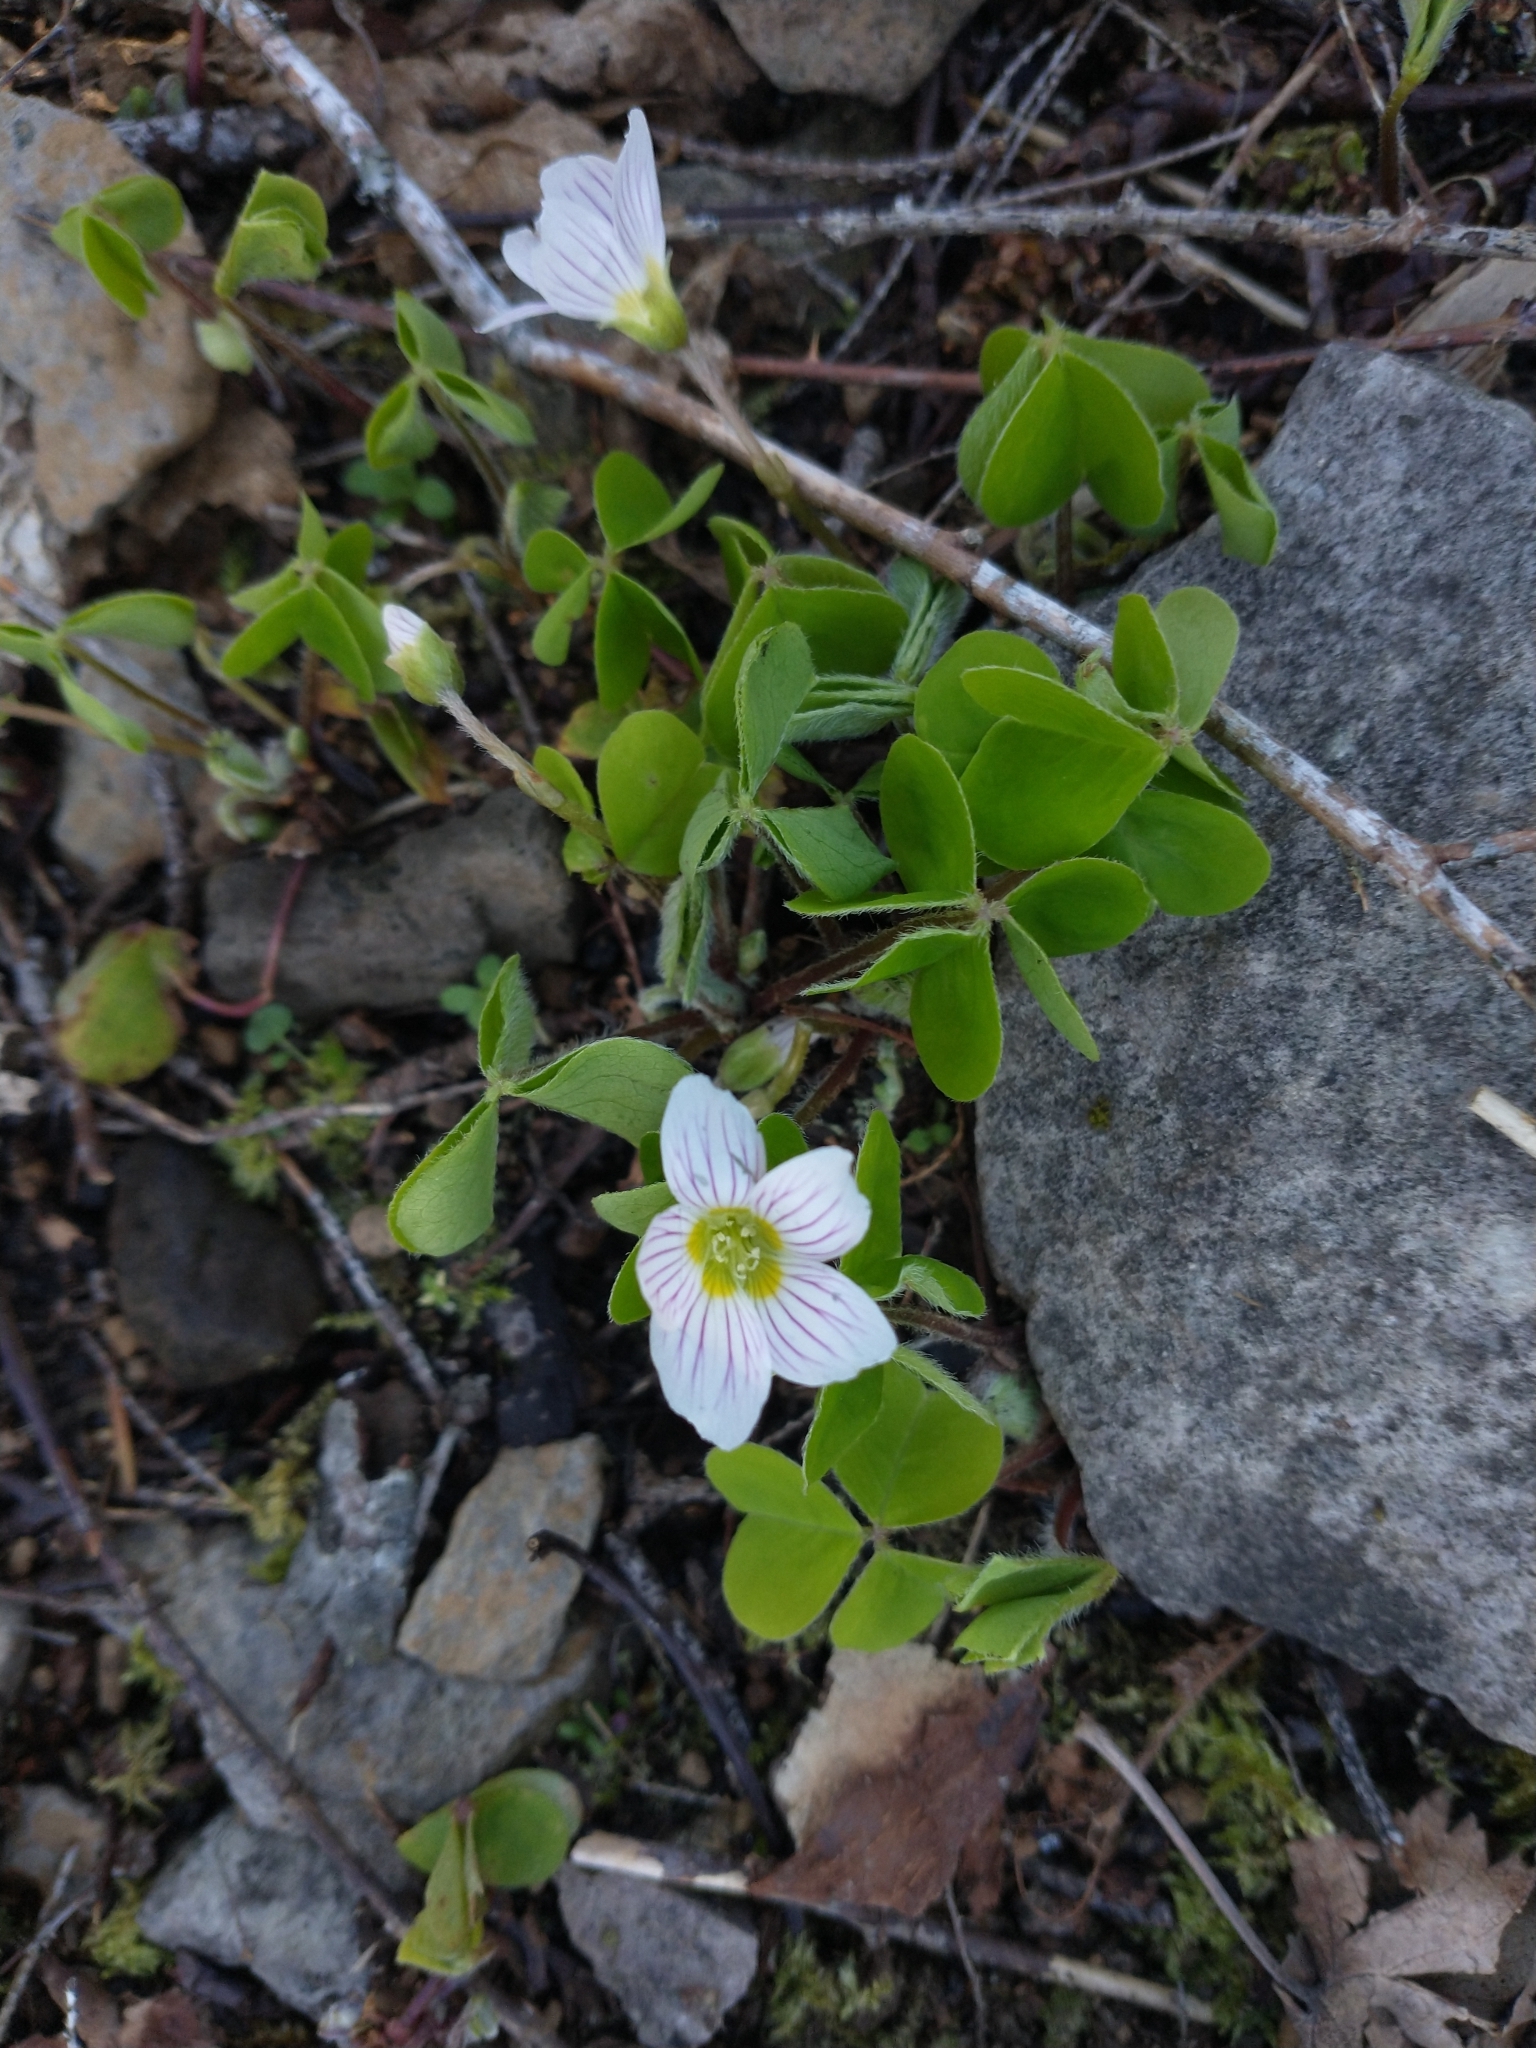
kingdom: Plantae
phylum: Tracheophyta
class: Magnoliopsida
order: Oxalidales
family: Oxalidaceae
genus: Oxalis
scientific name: Oxalis oregana
